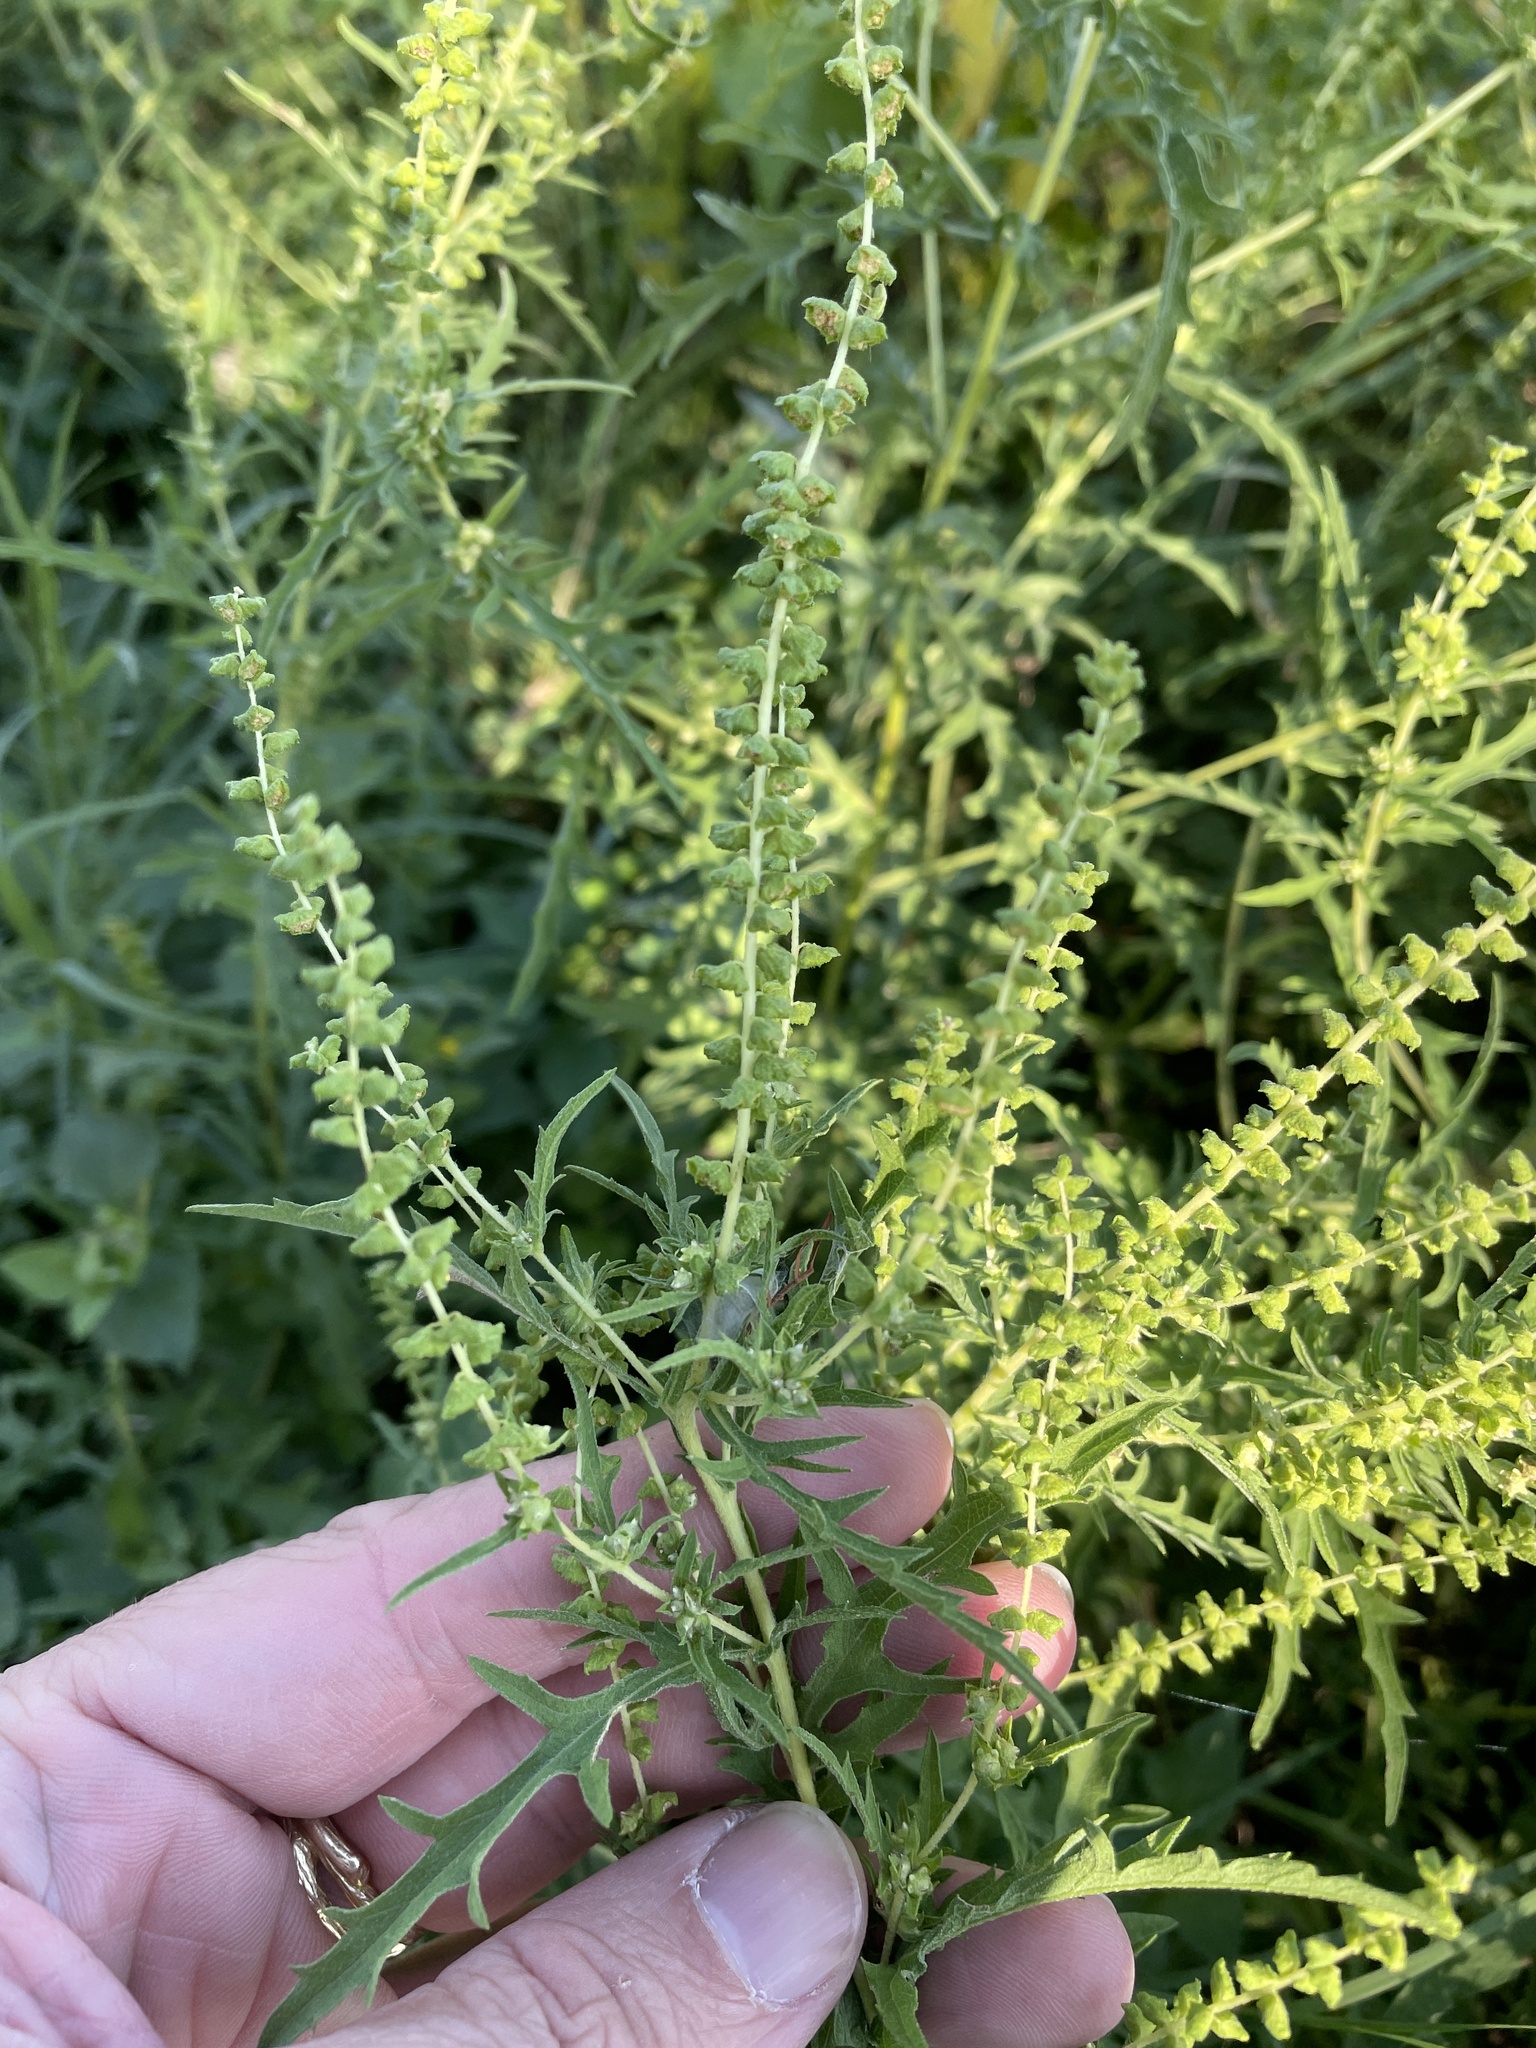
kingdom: Plantae
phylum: Tracheophyta
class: Magnoliopsida
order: Asterales
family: Asteraceae
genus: Ambrosia
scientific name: Ambrosia psilostachya
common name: Perennial ragweed
